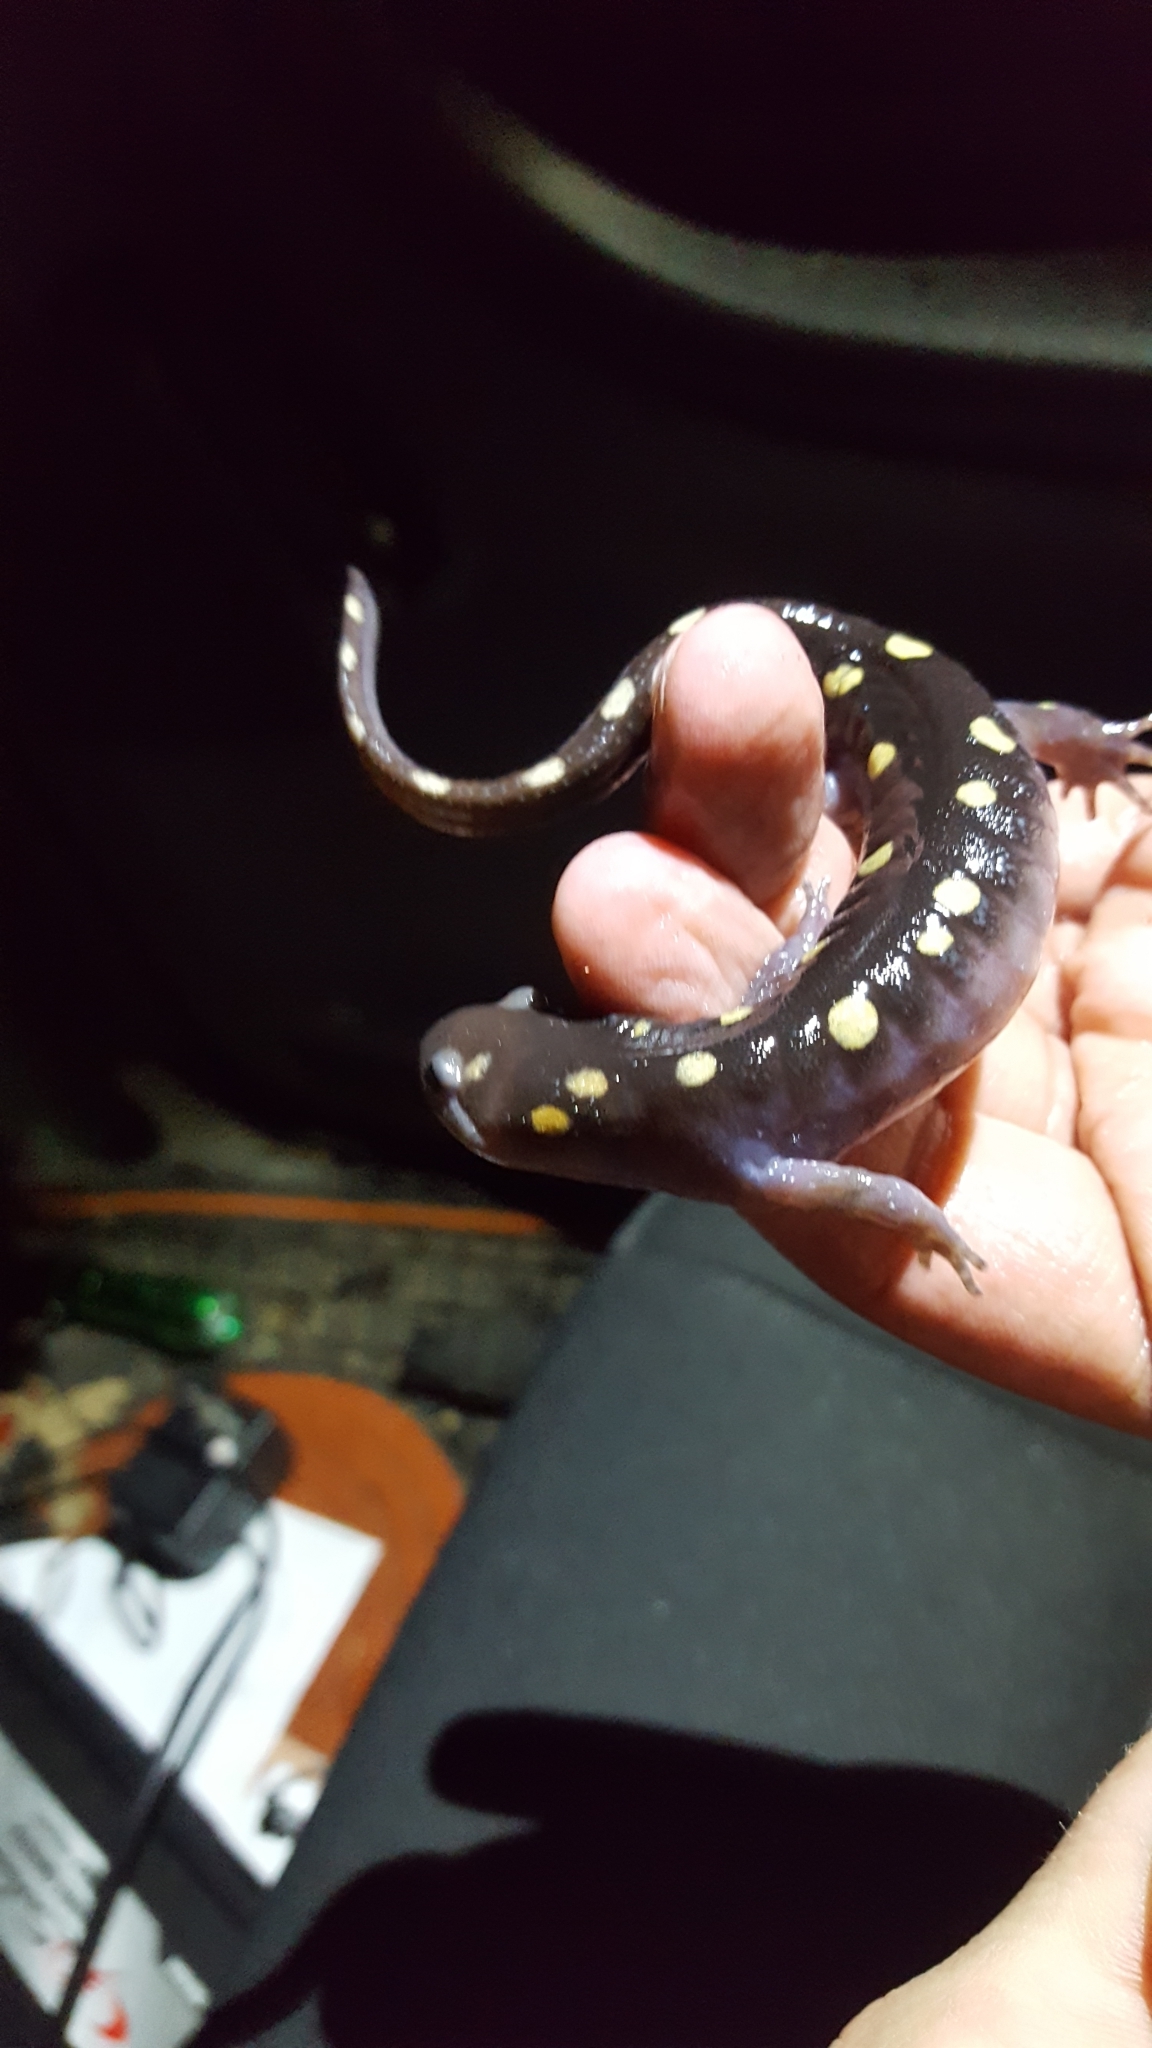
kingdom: Animalia
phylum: Chordata
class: Amphibia
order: Caudata
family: Ambystomatidae
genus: Ambystoma
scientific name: Ambystoma maculatum
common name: Spotted salamander
